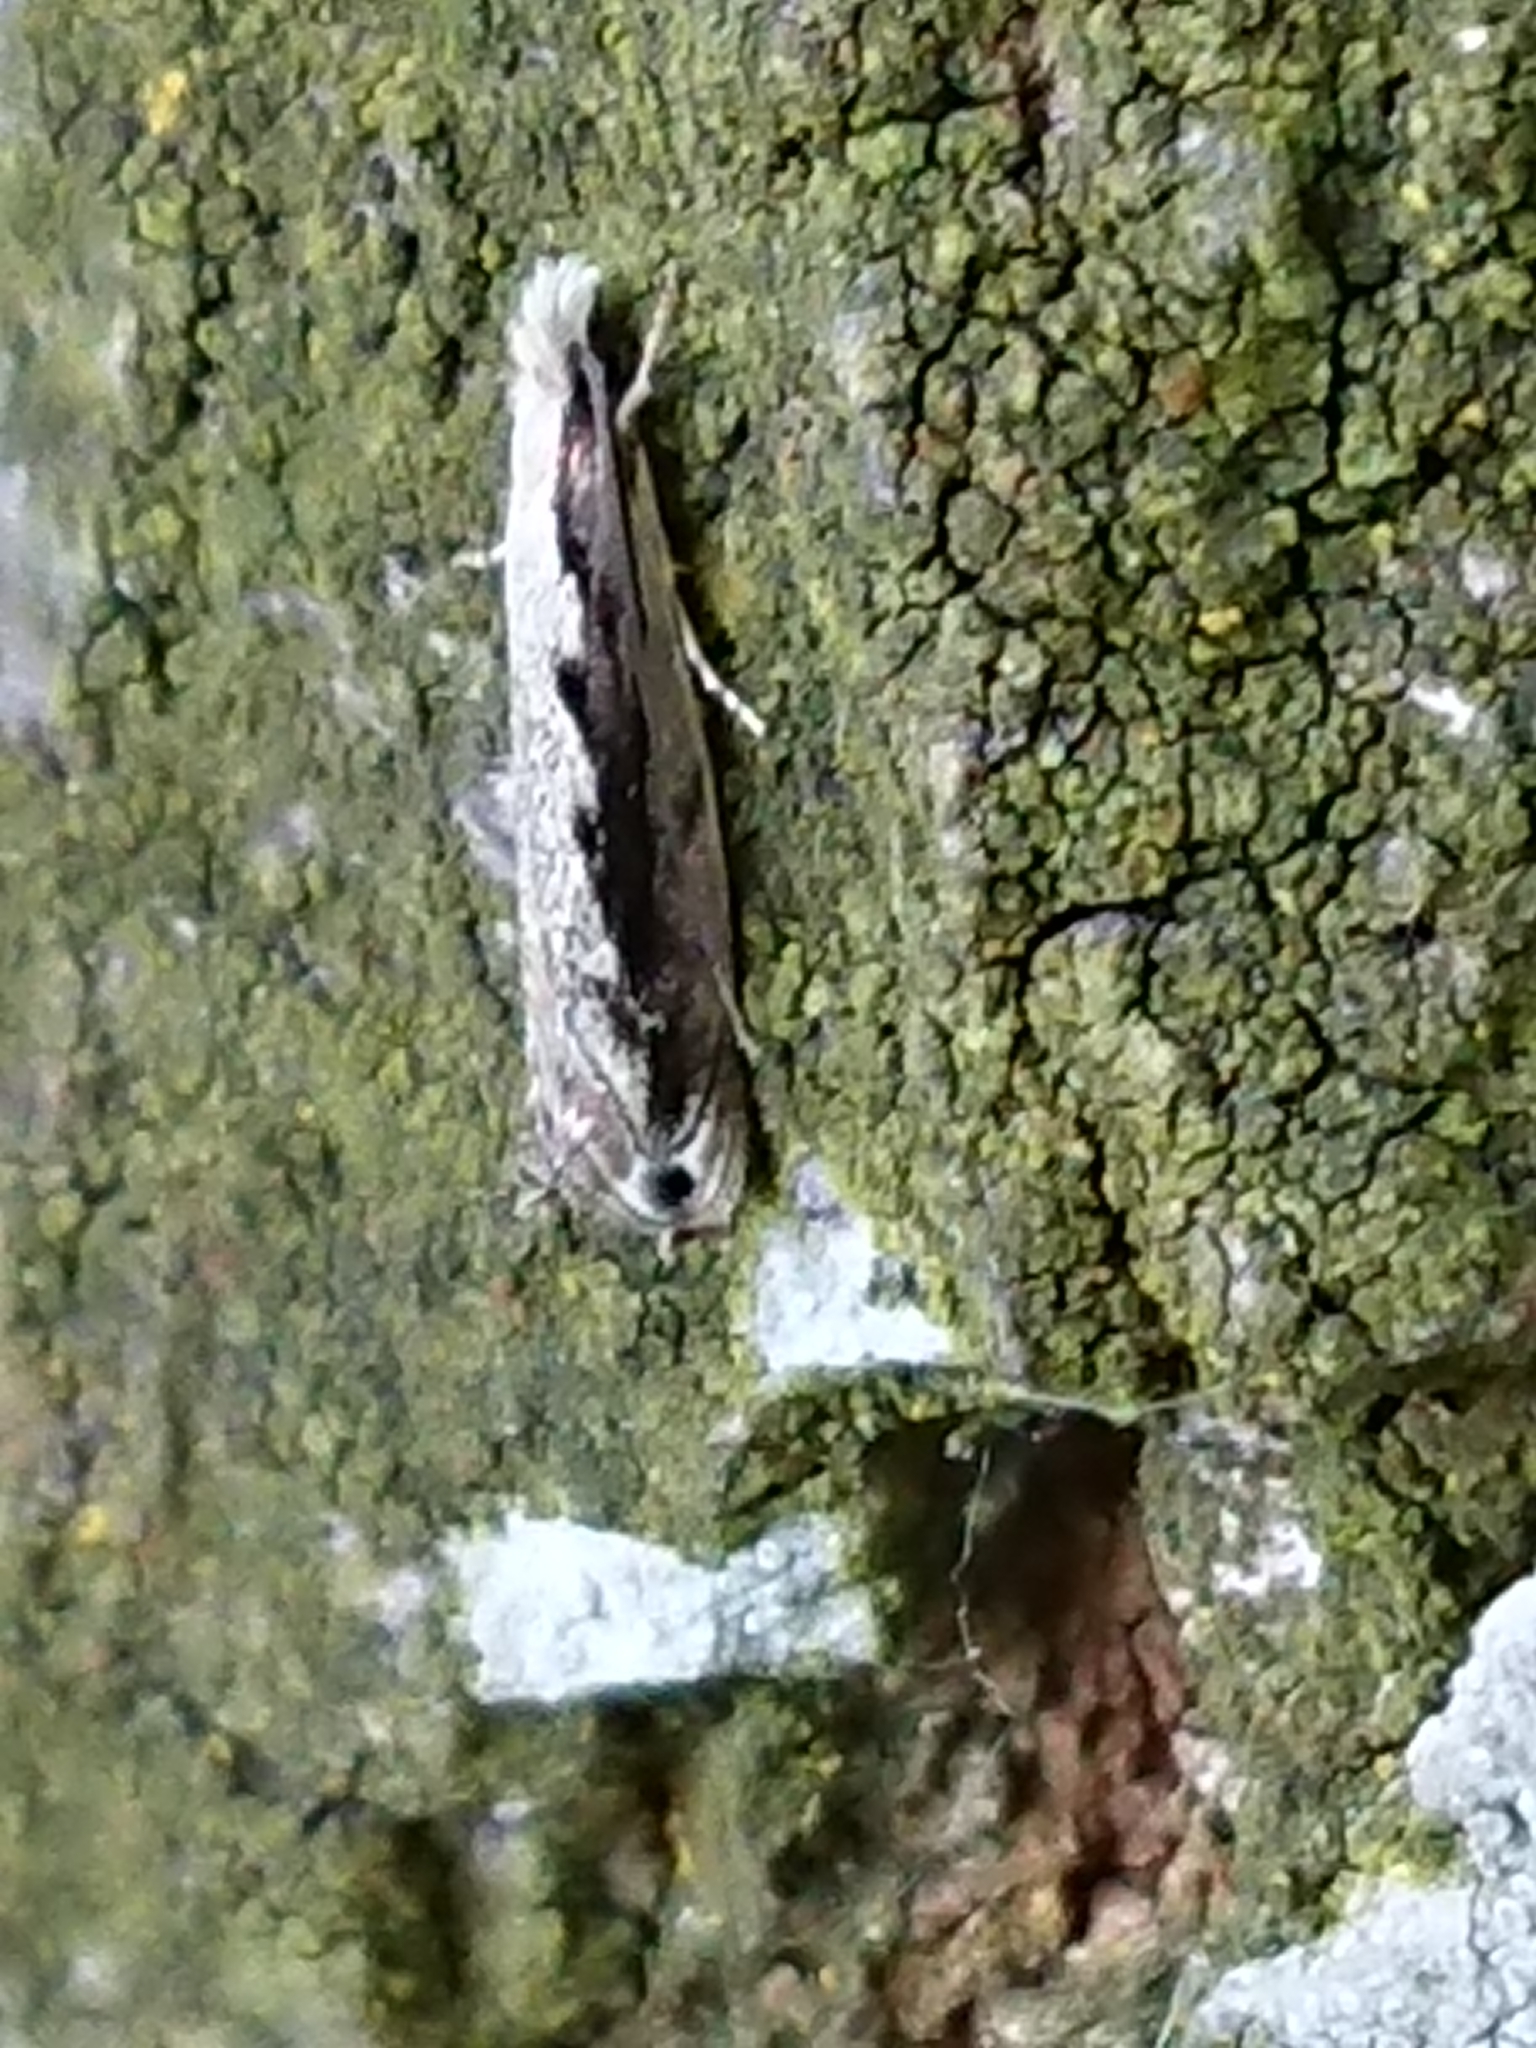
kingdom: Animalia
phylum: Arthropoda
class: Insecta
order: Lepidoptera
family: Tineidae
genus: Erechthias
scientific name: Erechthias fulguritella
